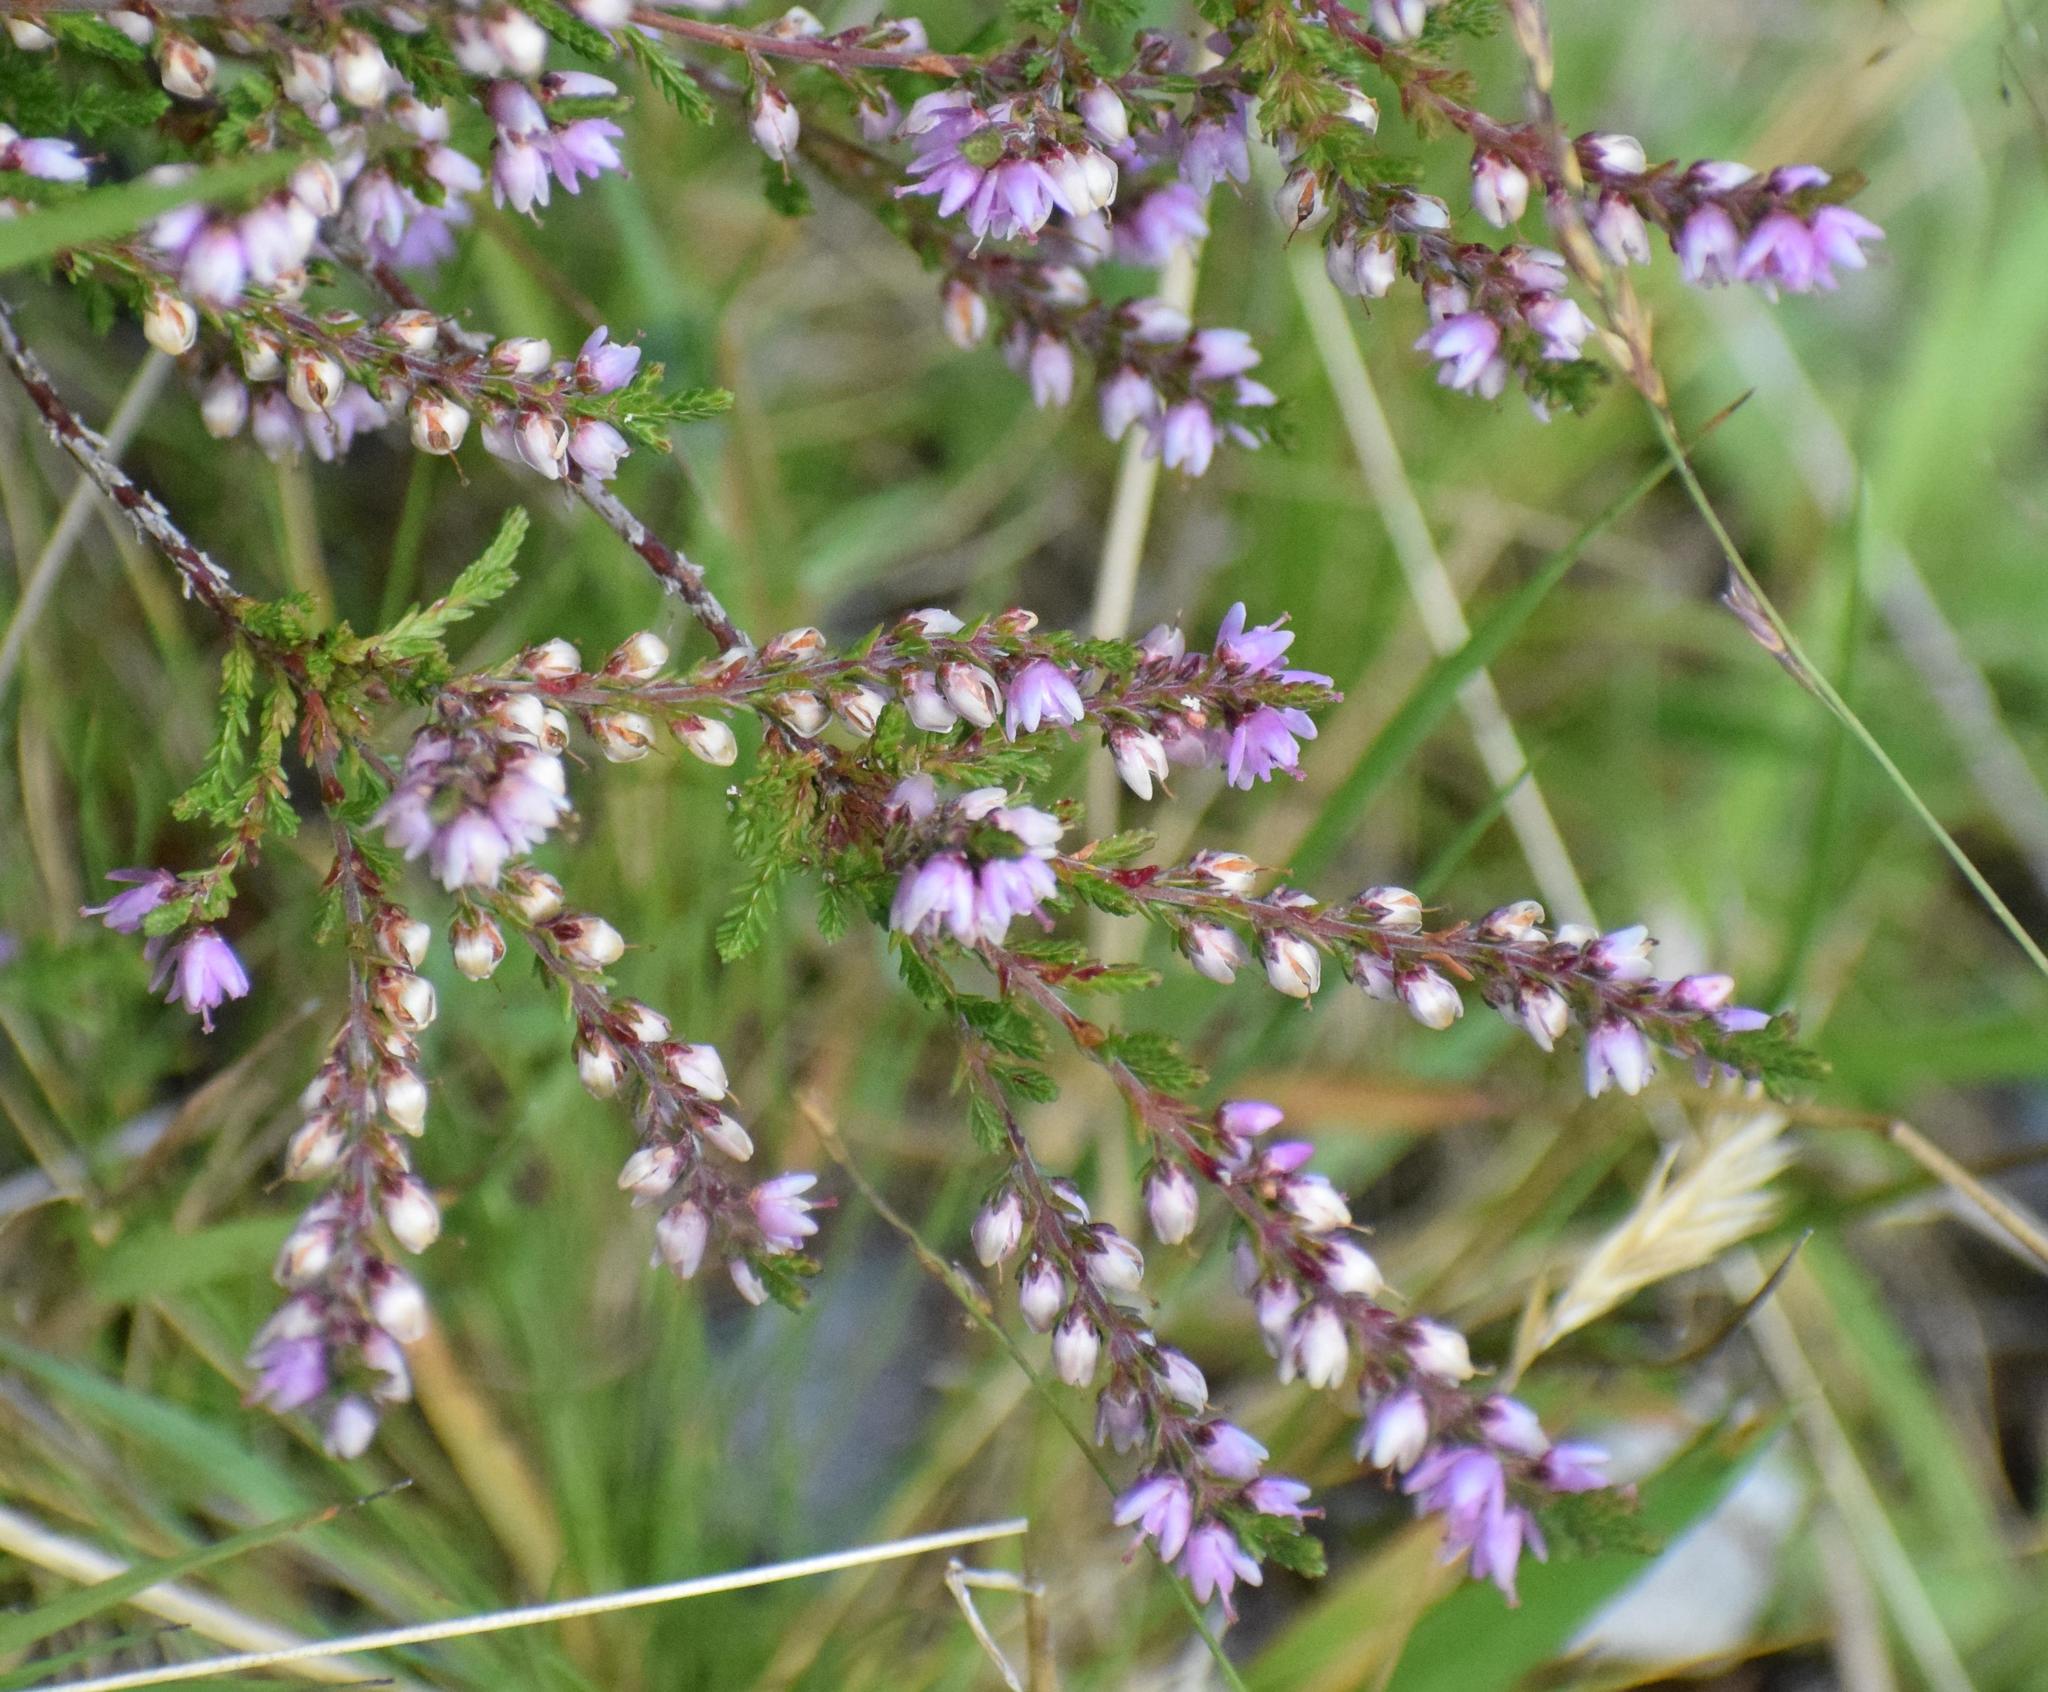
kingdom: Plantae
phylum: Tracheophyta
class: Magnoliopsida
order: Ericales
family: Ericaceae
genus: Calluna
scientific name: Calluna vulgaris
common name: Heather
